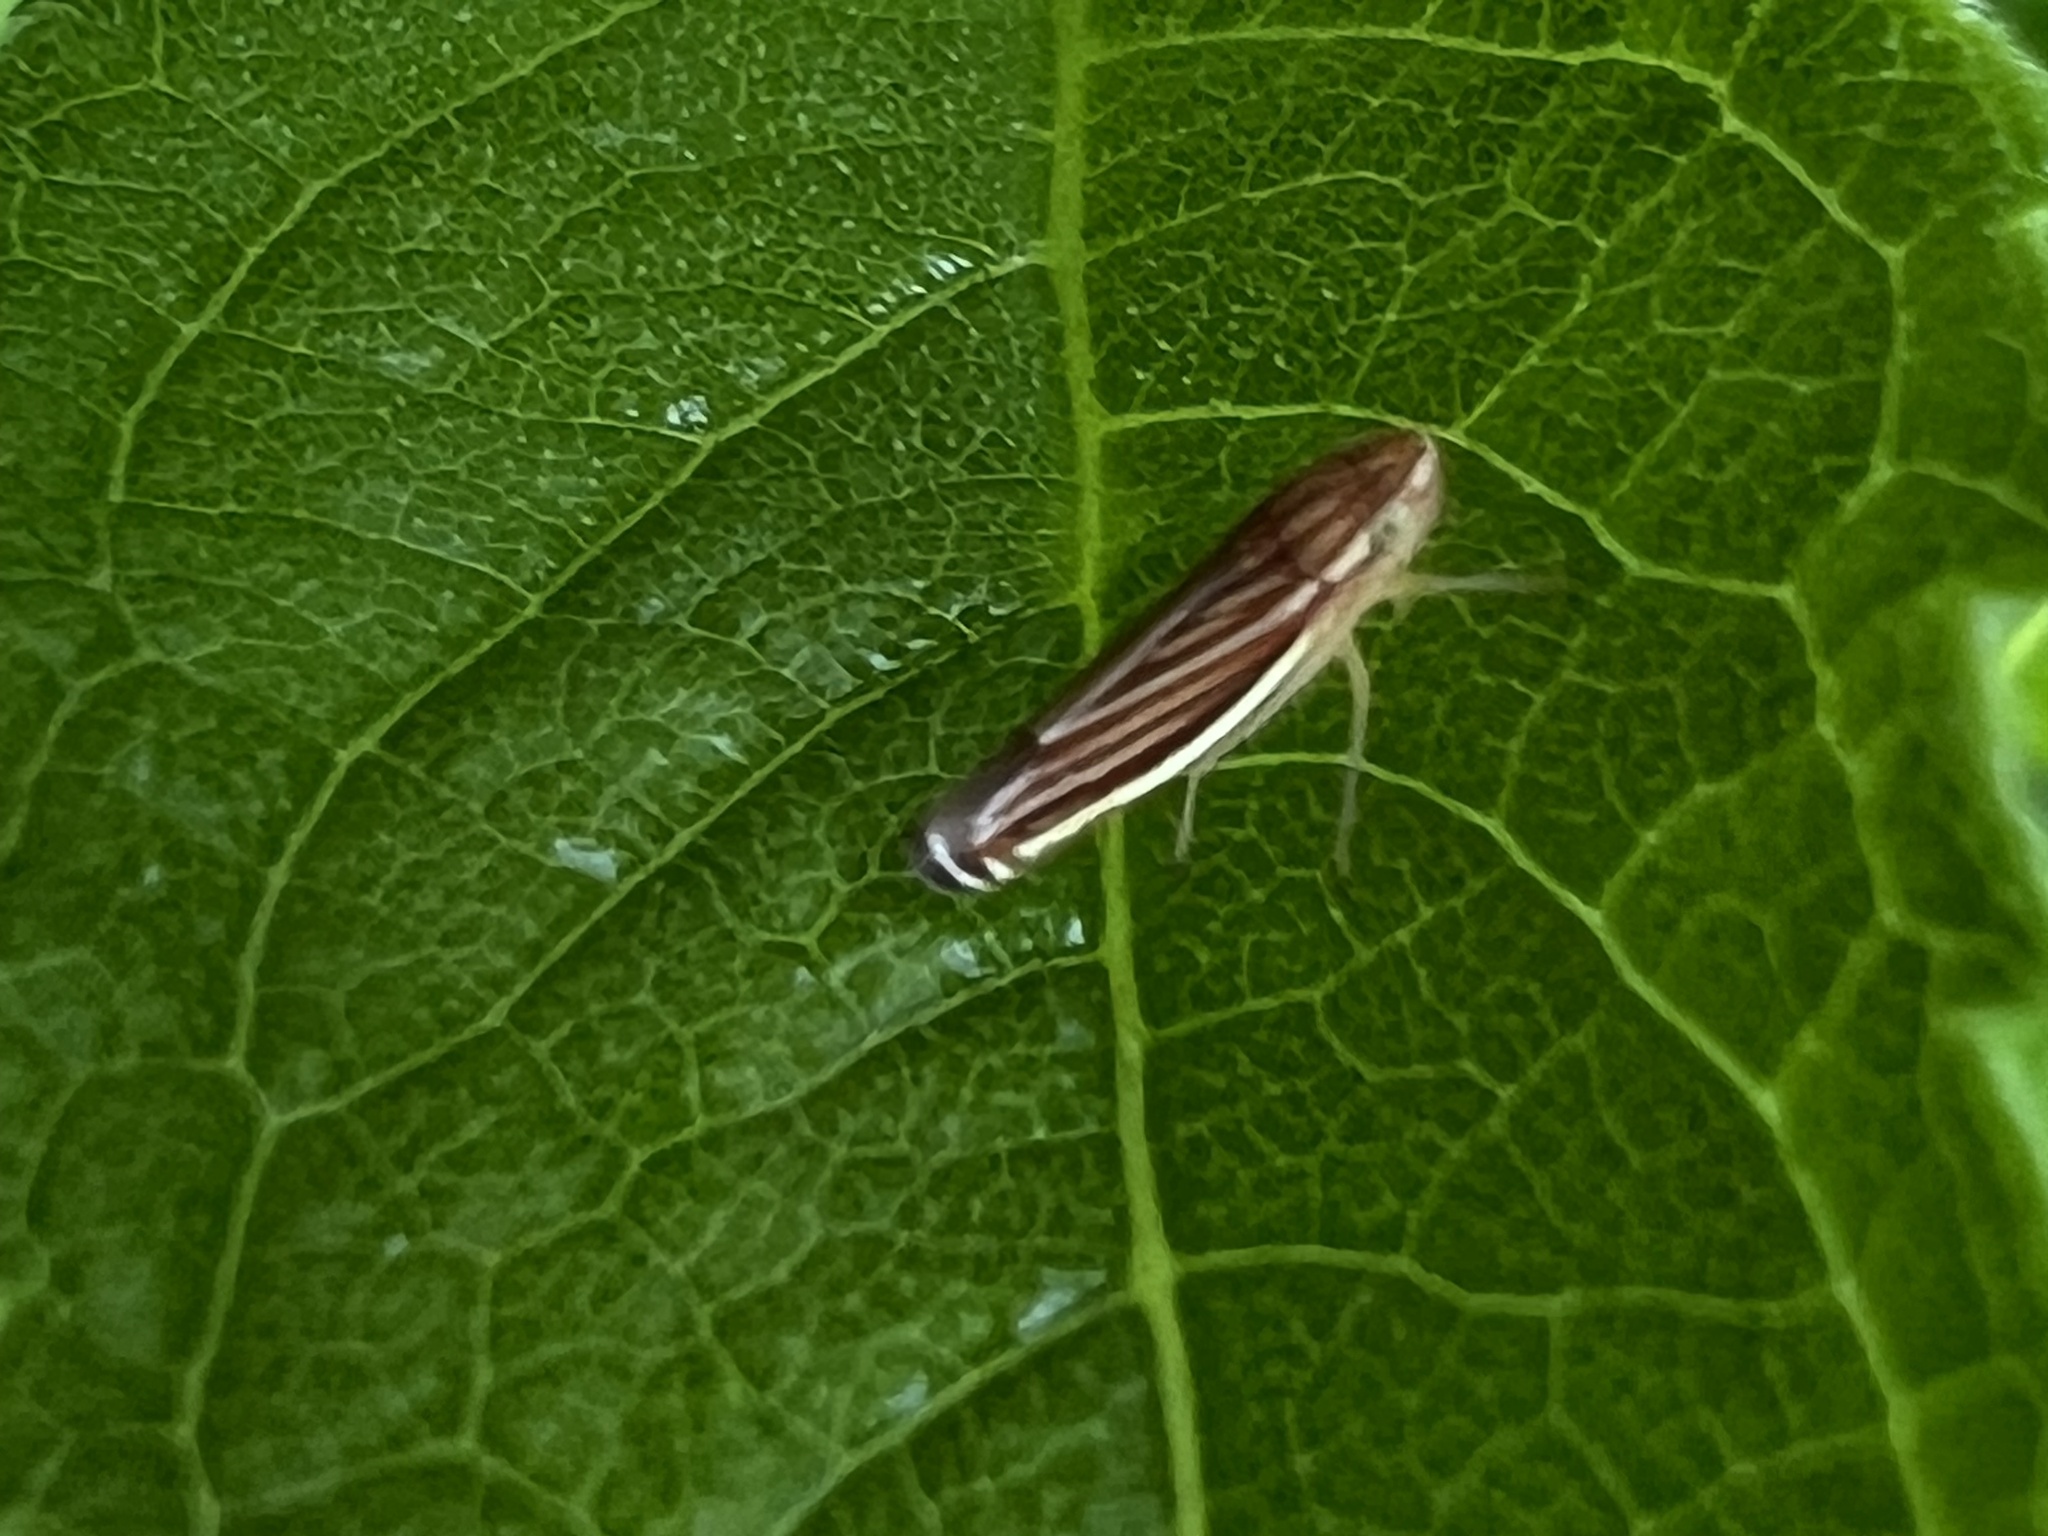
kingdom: Animalia
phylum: Arthropoda
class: Insecta
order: Hemiptera
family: Cicadellidae
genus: Sibovia
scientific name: Sibovia occatoria
